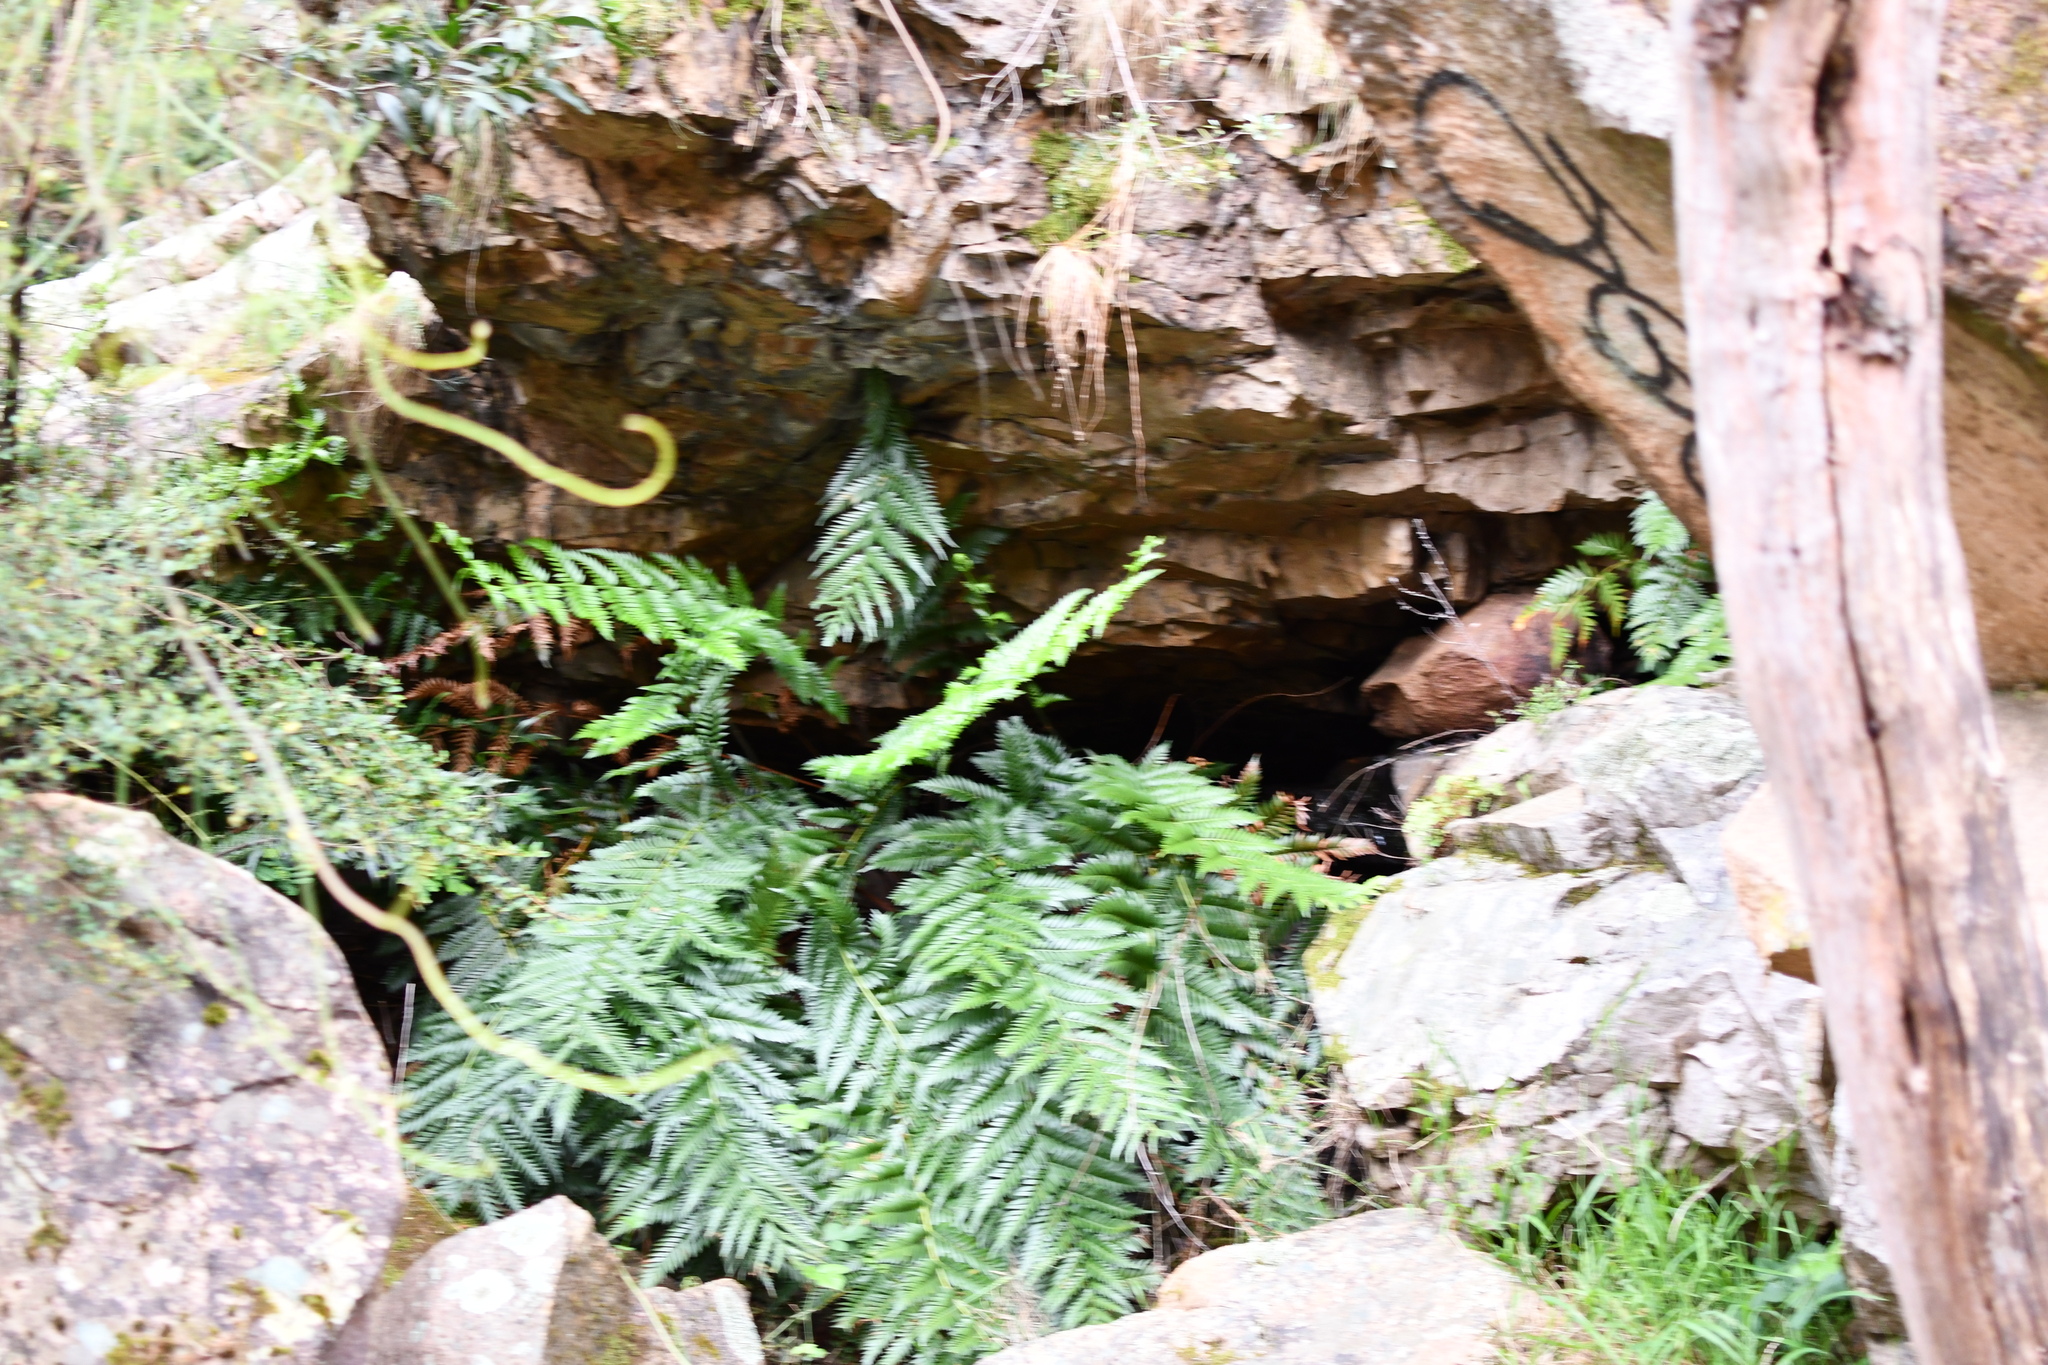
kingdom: Plantae
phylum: Tracheophyta
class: Polypodiopsida
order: Osmundales
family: Osmundaceae
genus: Todea
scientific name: Todea barbara
